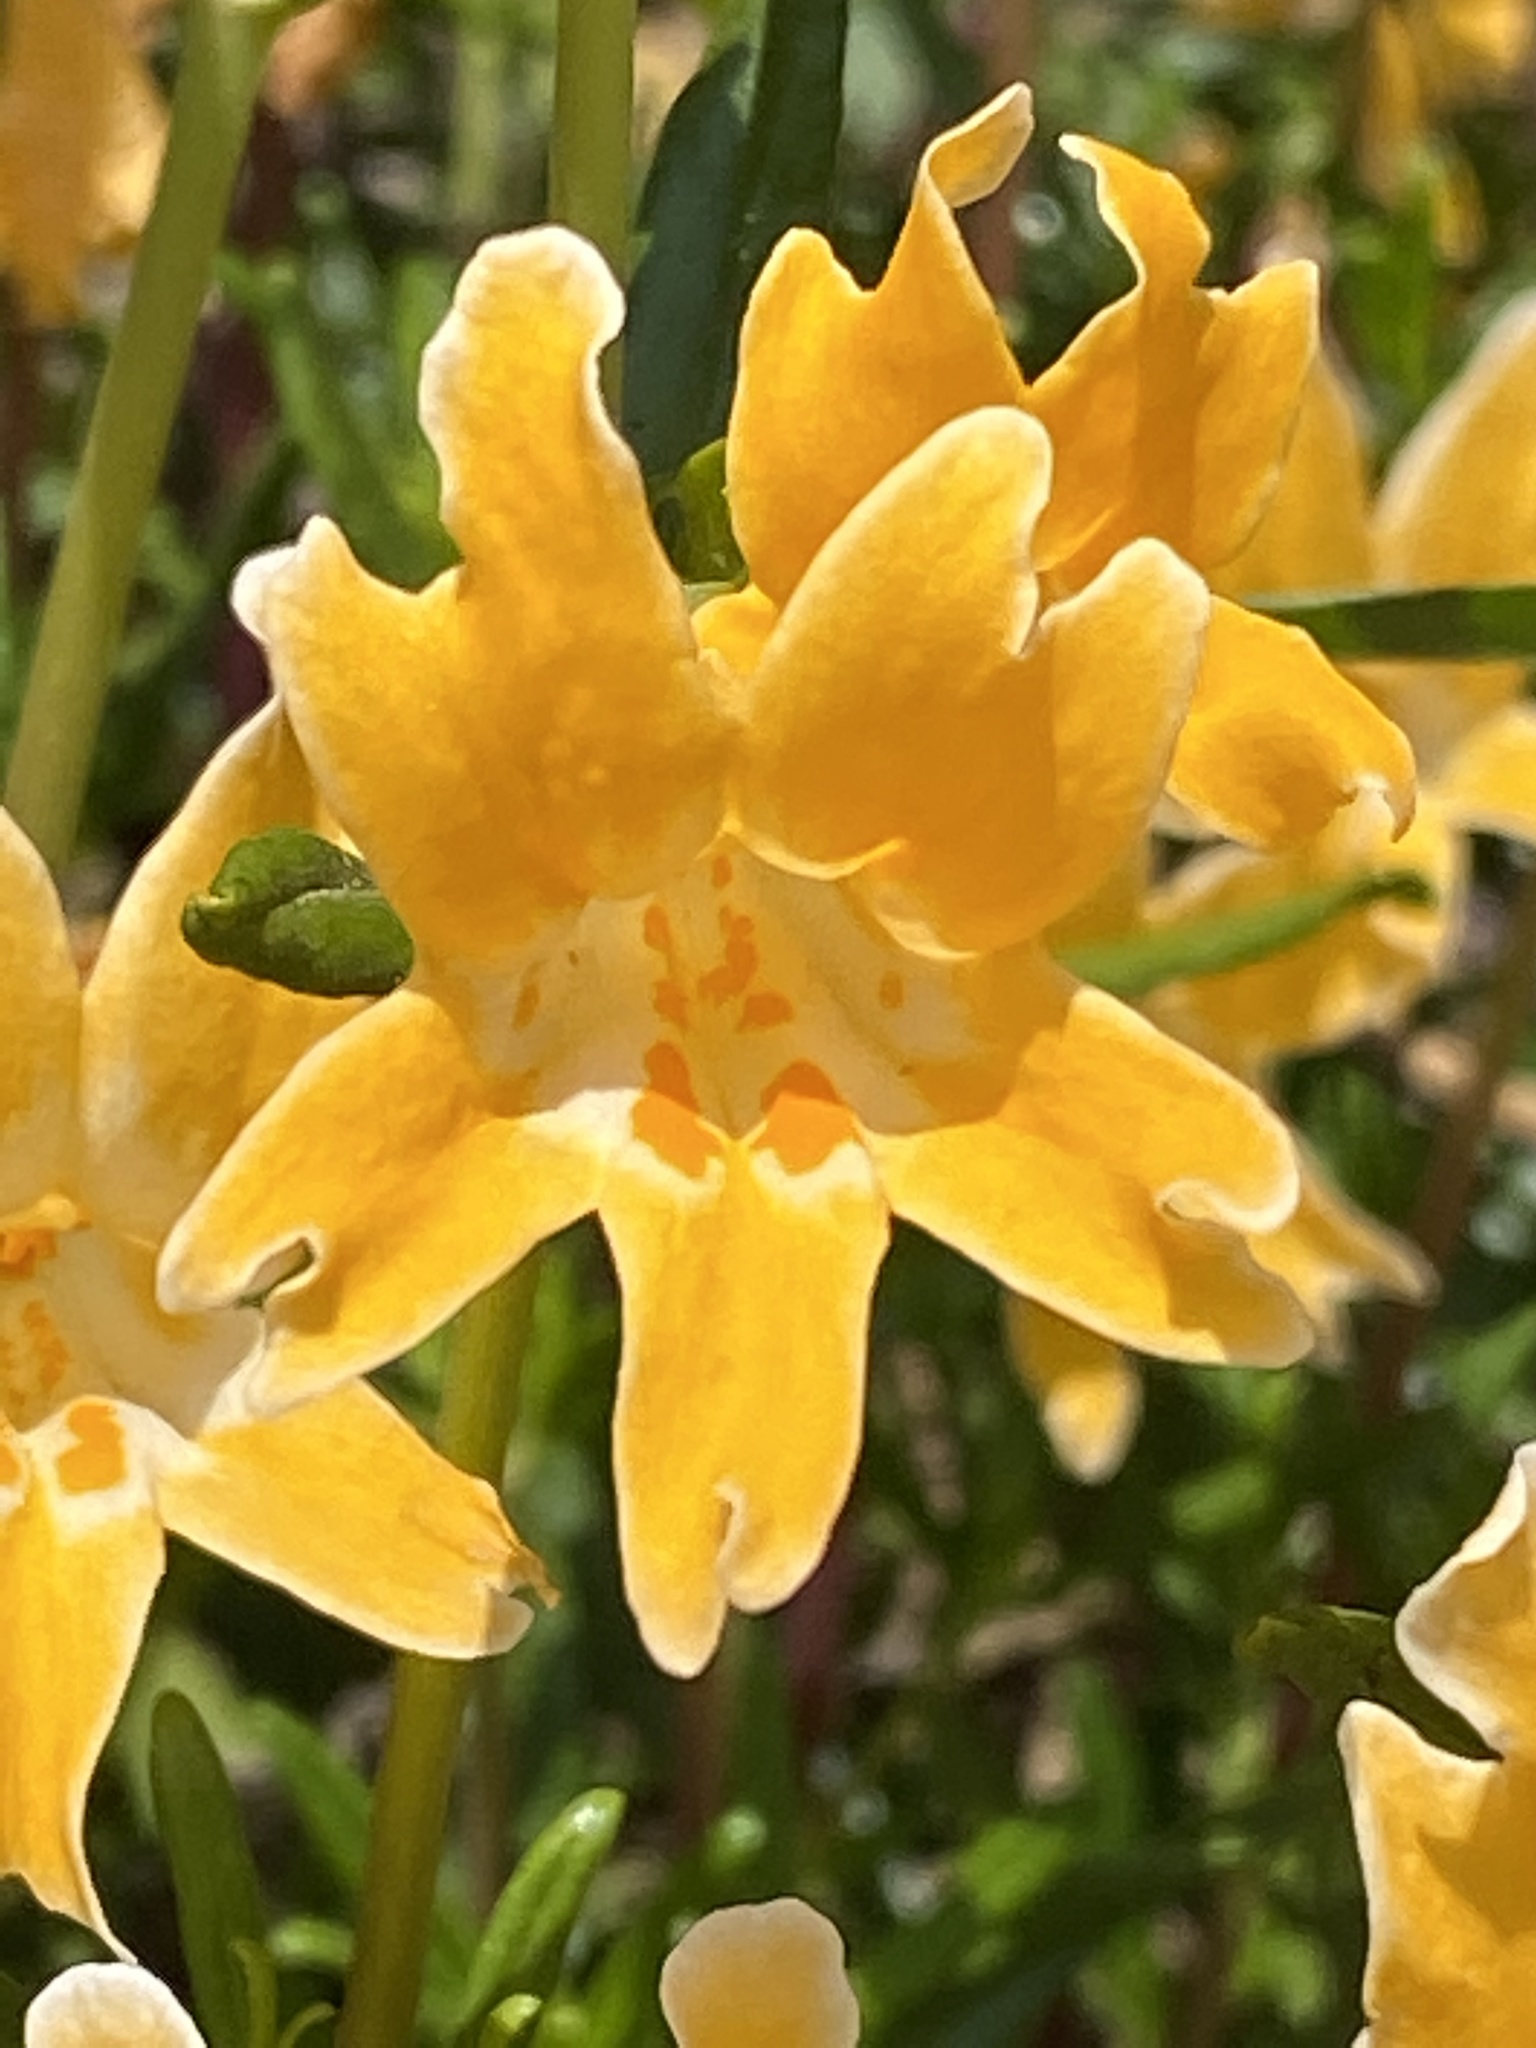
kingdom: Plantae
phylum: Tracheophyta
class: Magnoliopsida
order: Lamiales
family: Phrymaceae
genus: Diplacus
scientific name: Diplacus linearis
